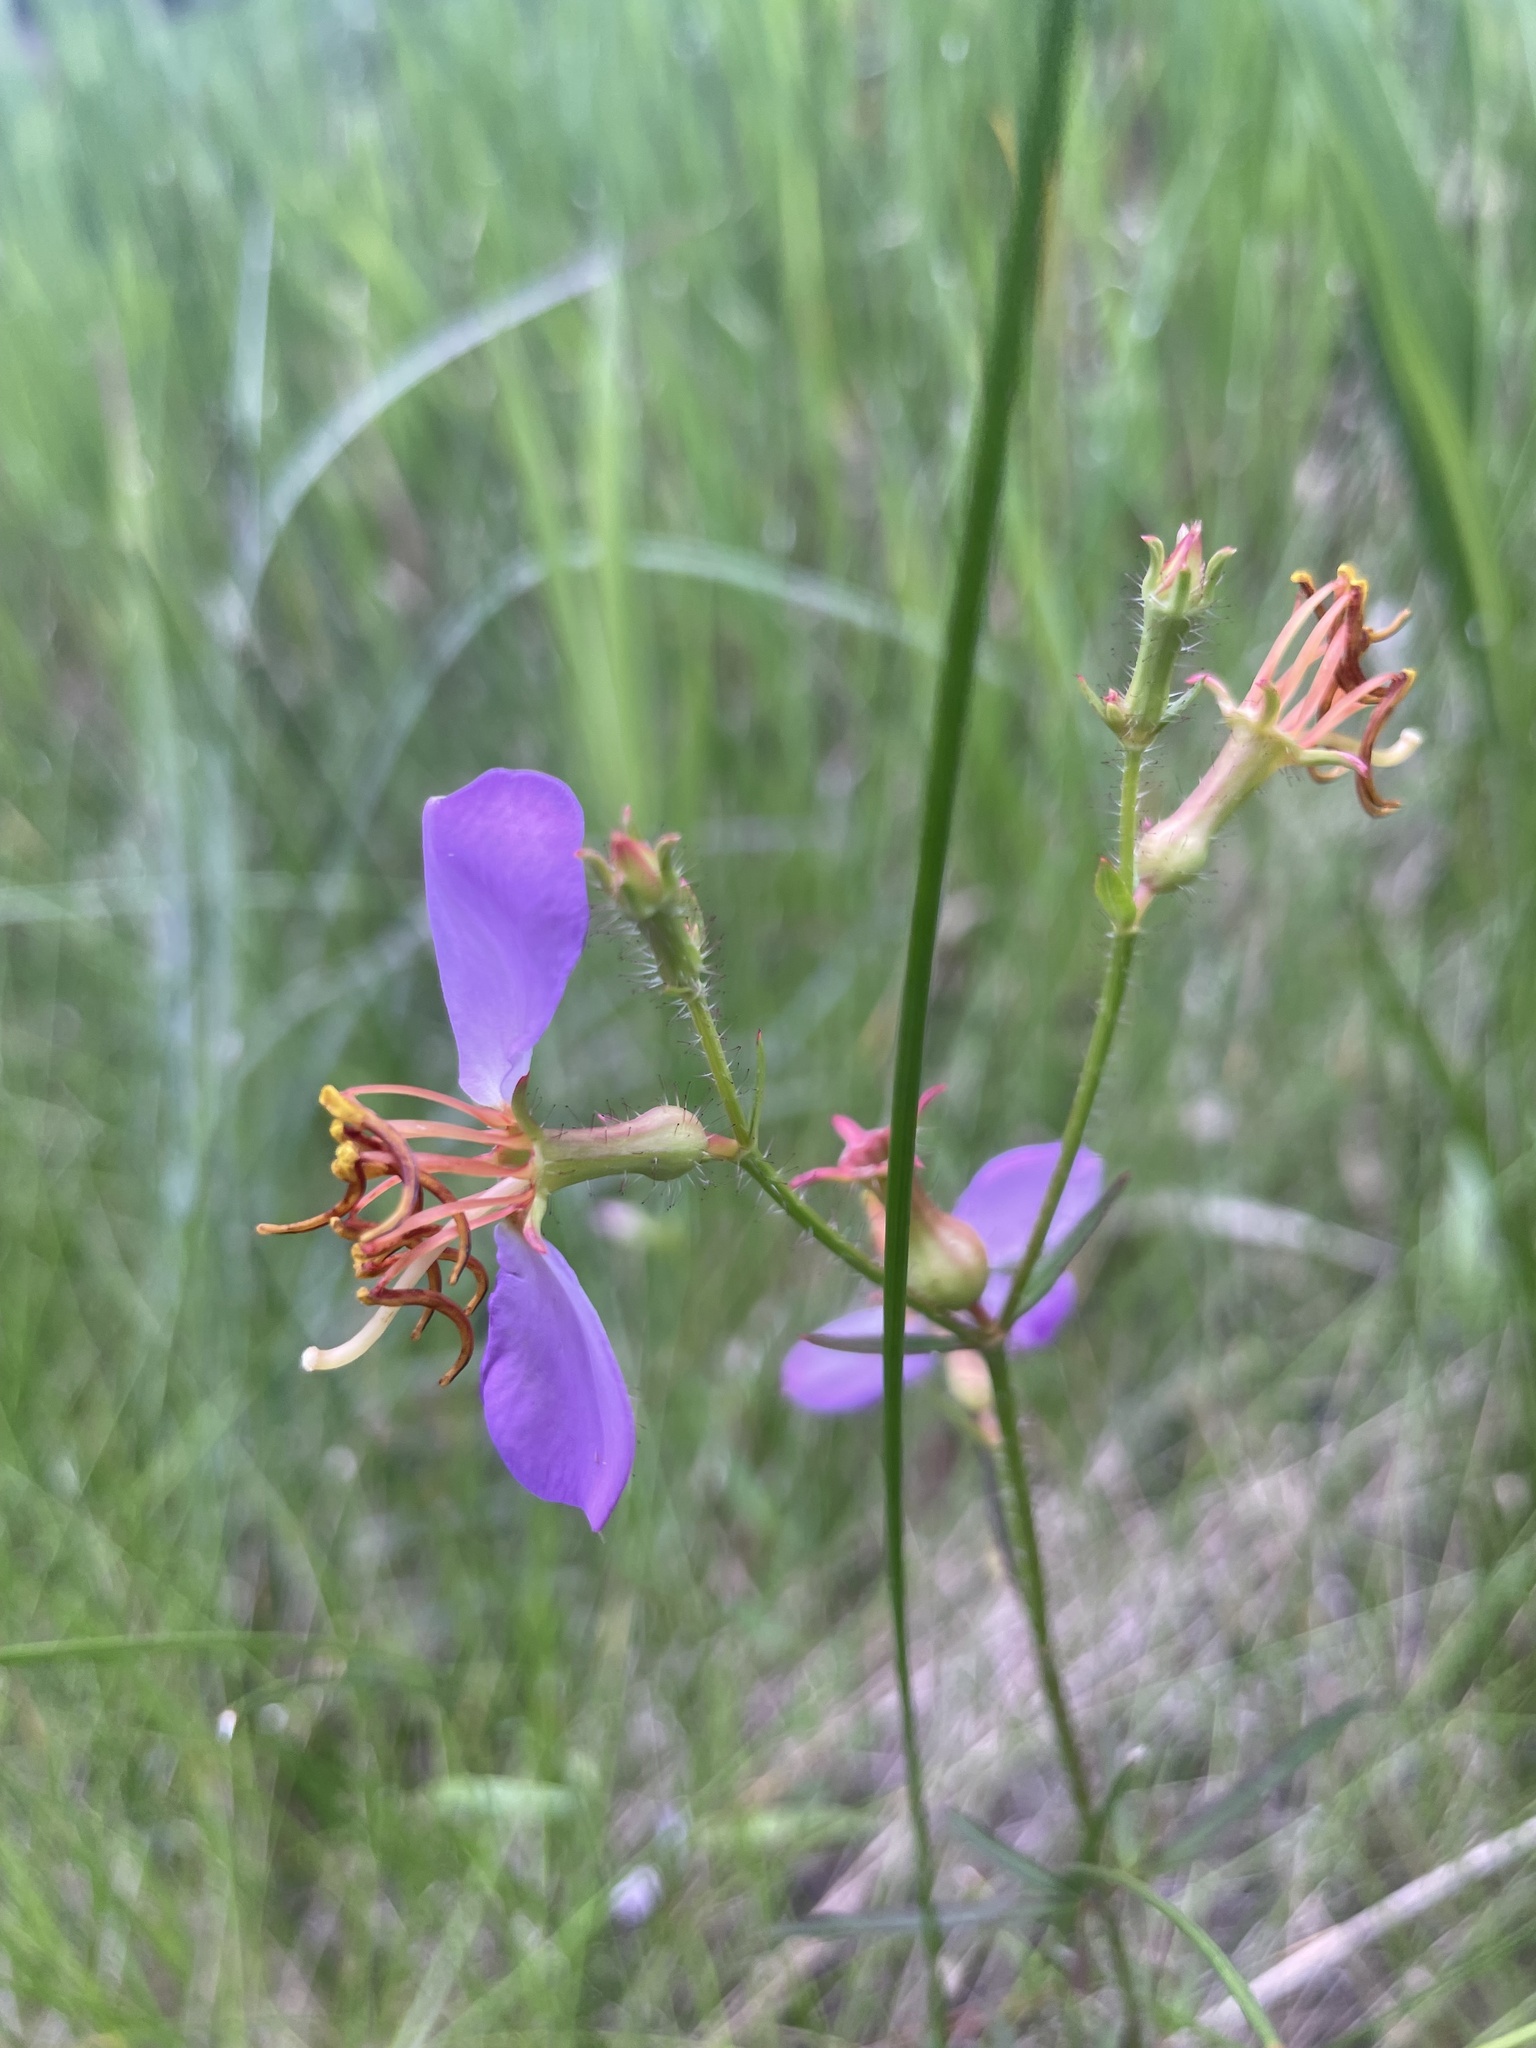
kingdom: Plantae
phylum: Tracheophyta
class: Magnoliopsida
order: Myrtales
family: Melastomataceae
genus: Rhexia
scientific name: Rhexia mariana
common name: Dull meadow-pitcher
